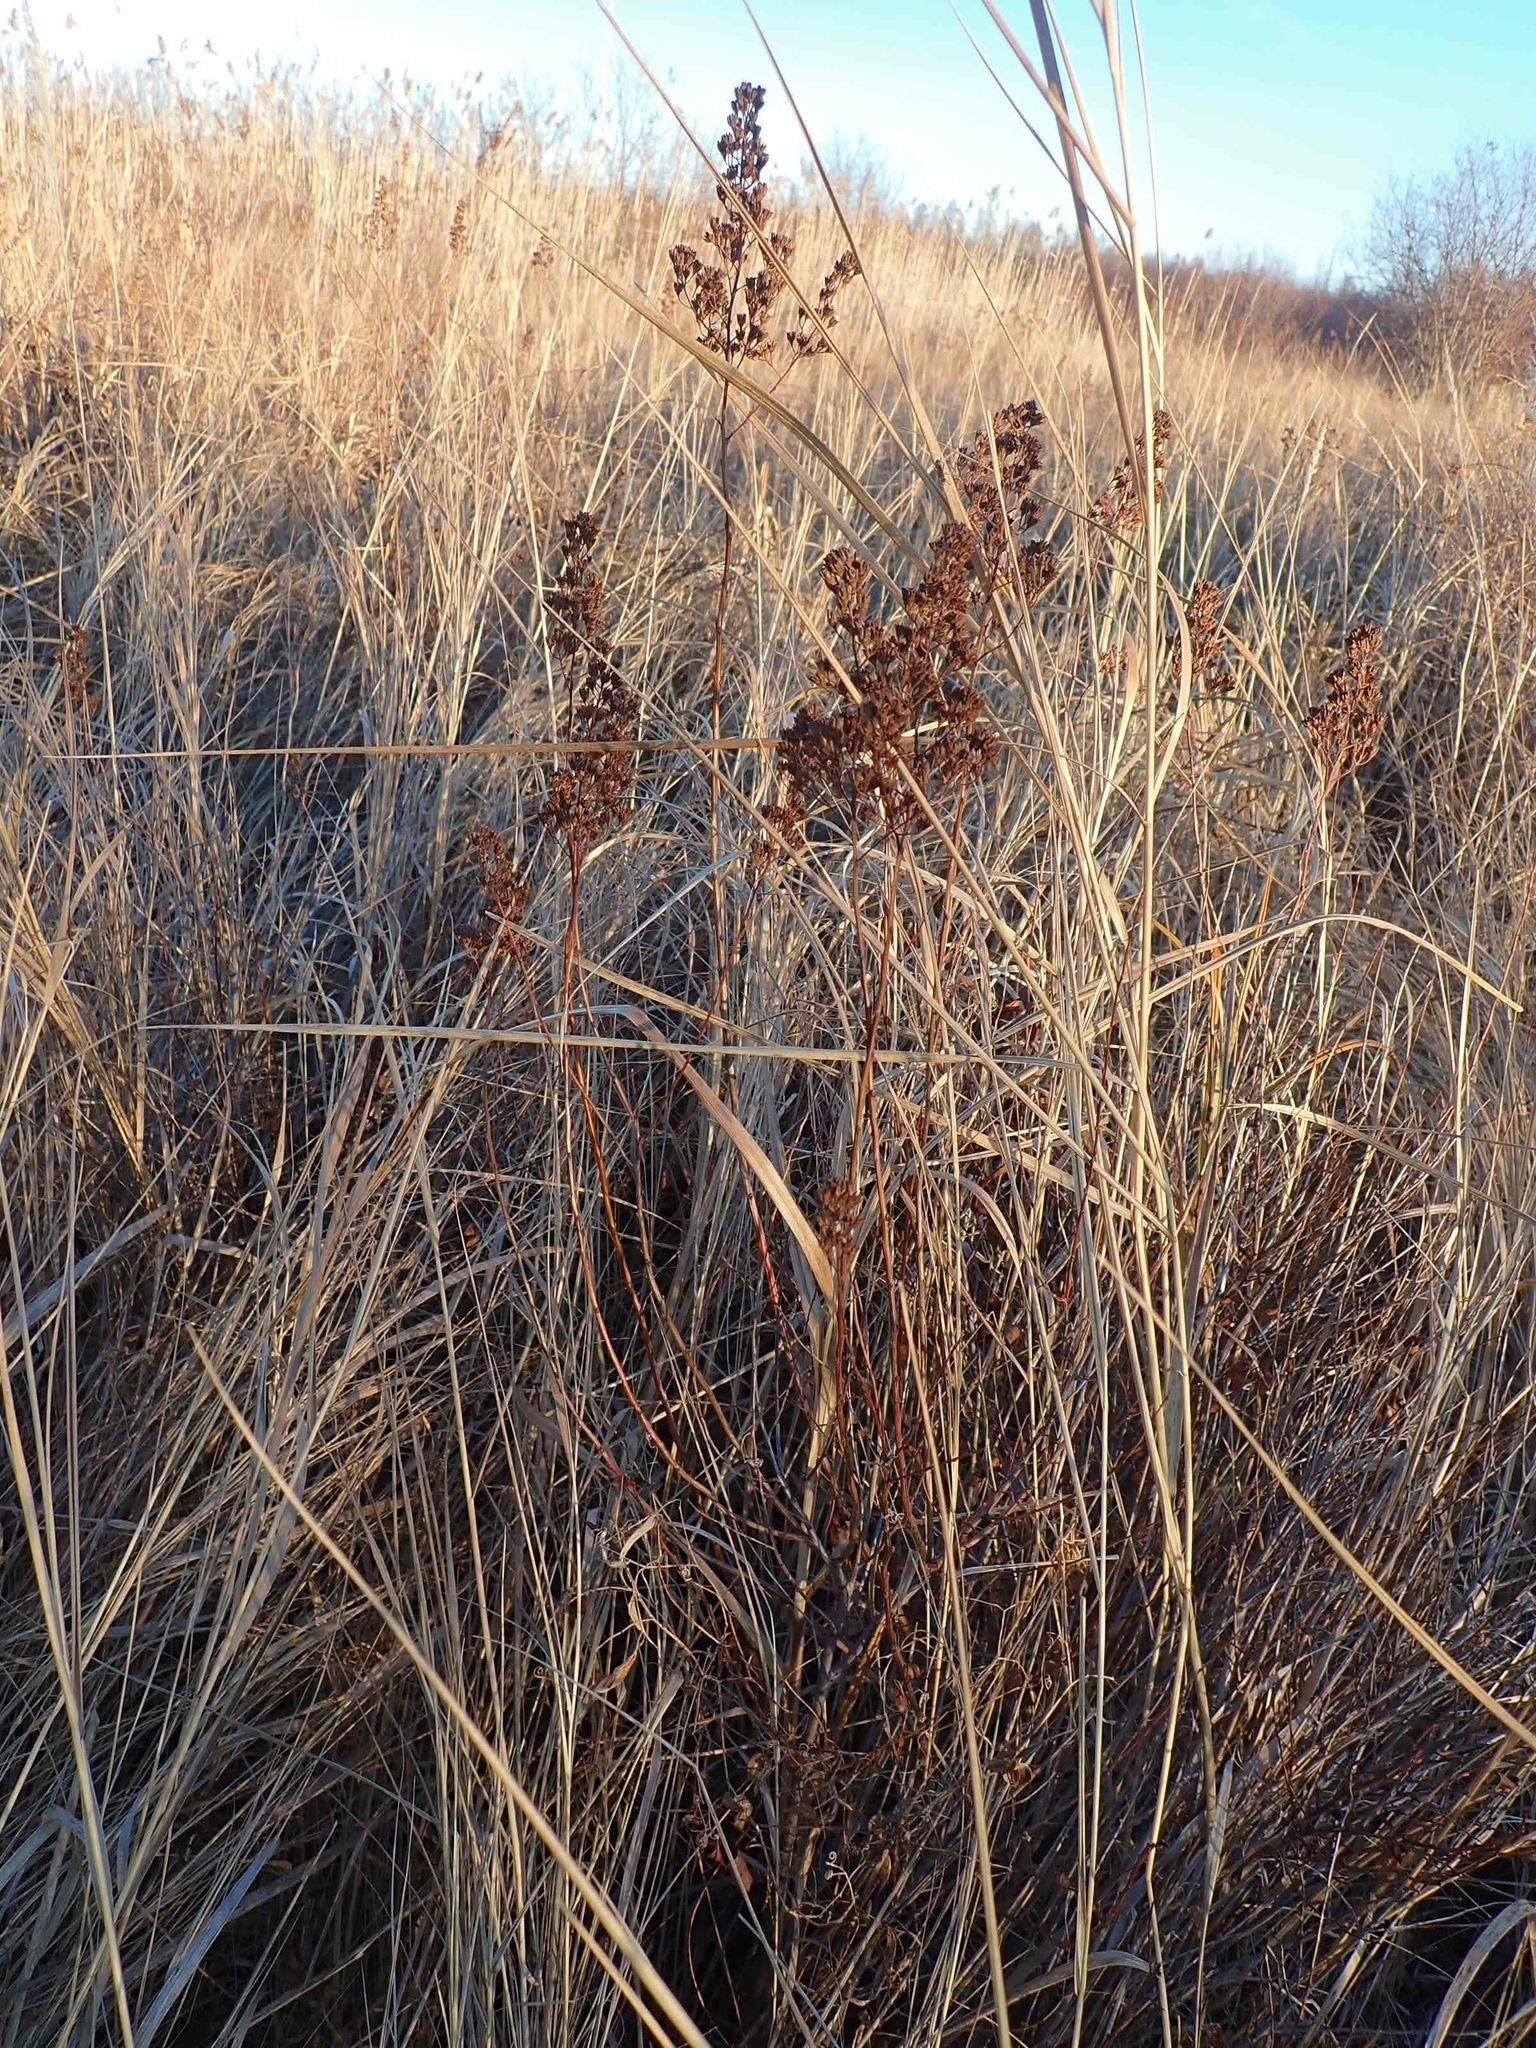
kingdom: Plantae
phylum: Tracheophyta
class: Magnoliopsida
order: Rosales
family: Rosaceae
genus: Spiraea
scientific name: Spiraea alba
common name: Pale bridewort
